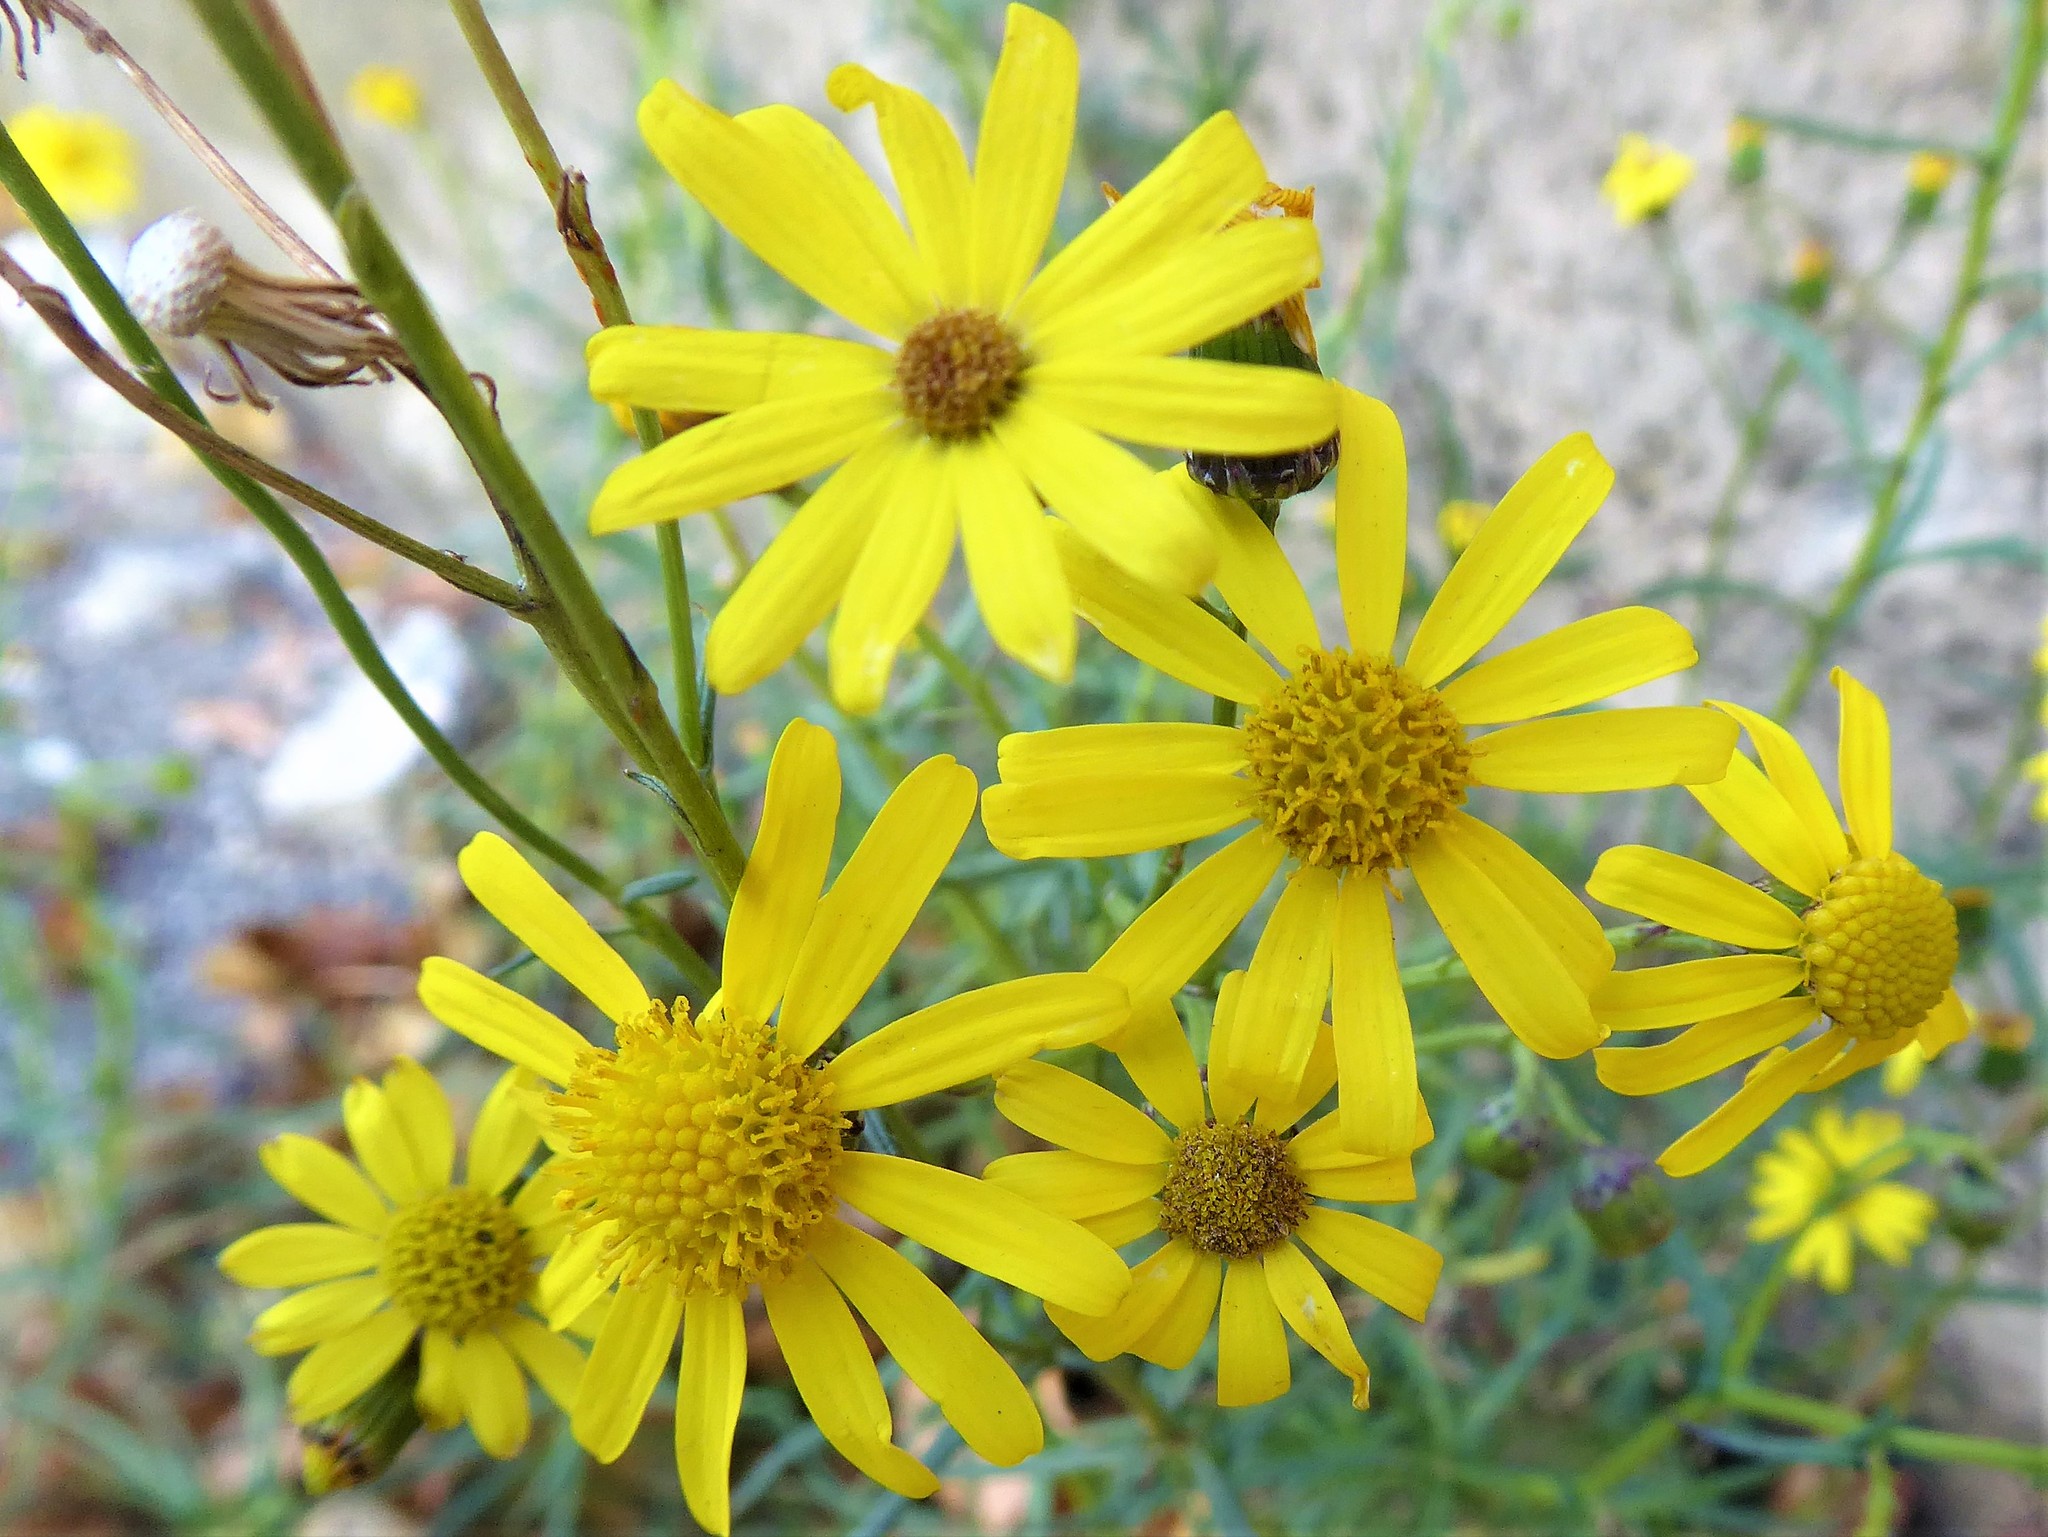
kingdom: Plantae
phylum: Tracheophyta
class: Magnoliopsida
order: Asterales
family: Asteraceae
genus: Senecio
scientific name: Senecio inaequidens
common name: Narrow-leaved ragwort
